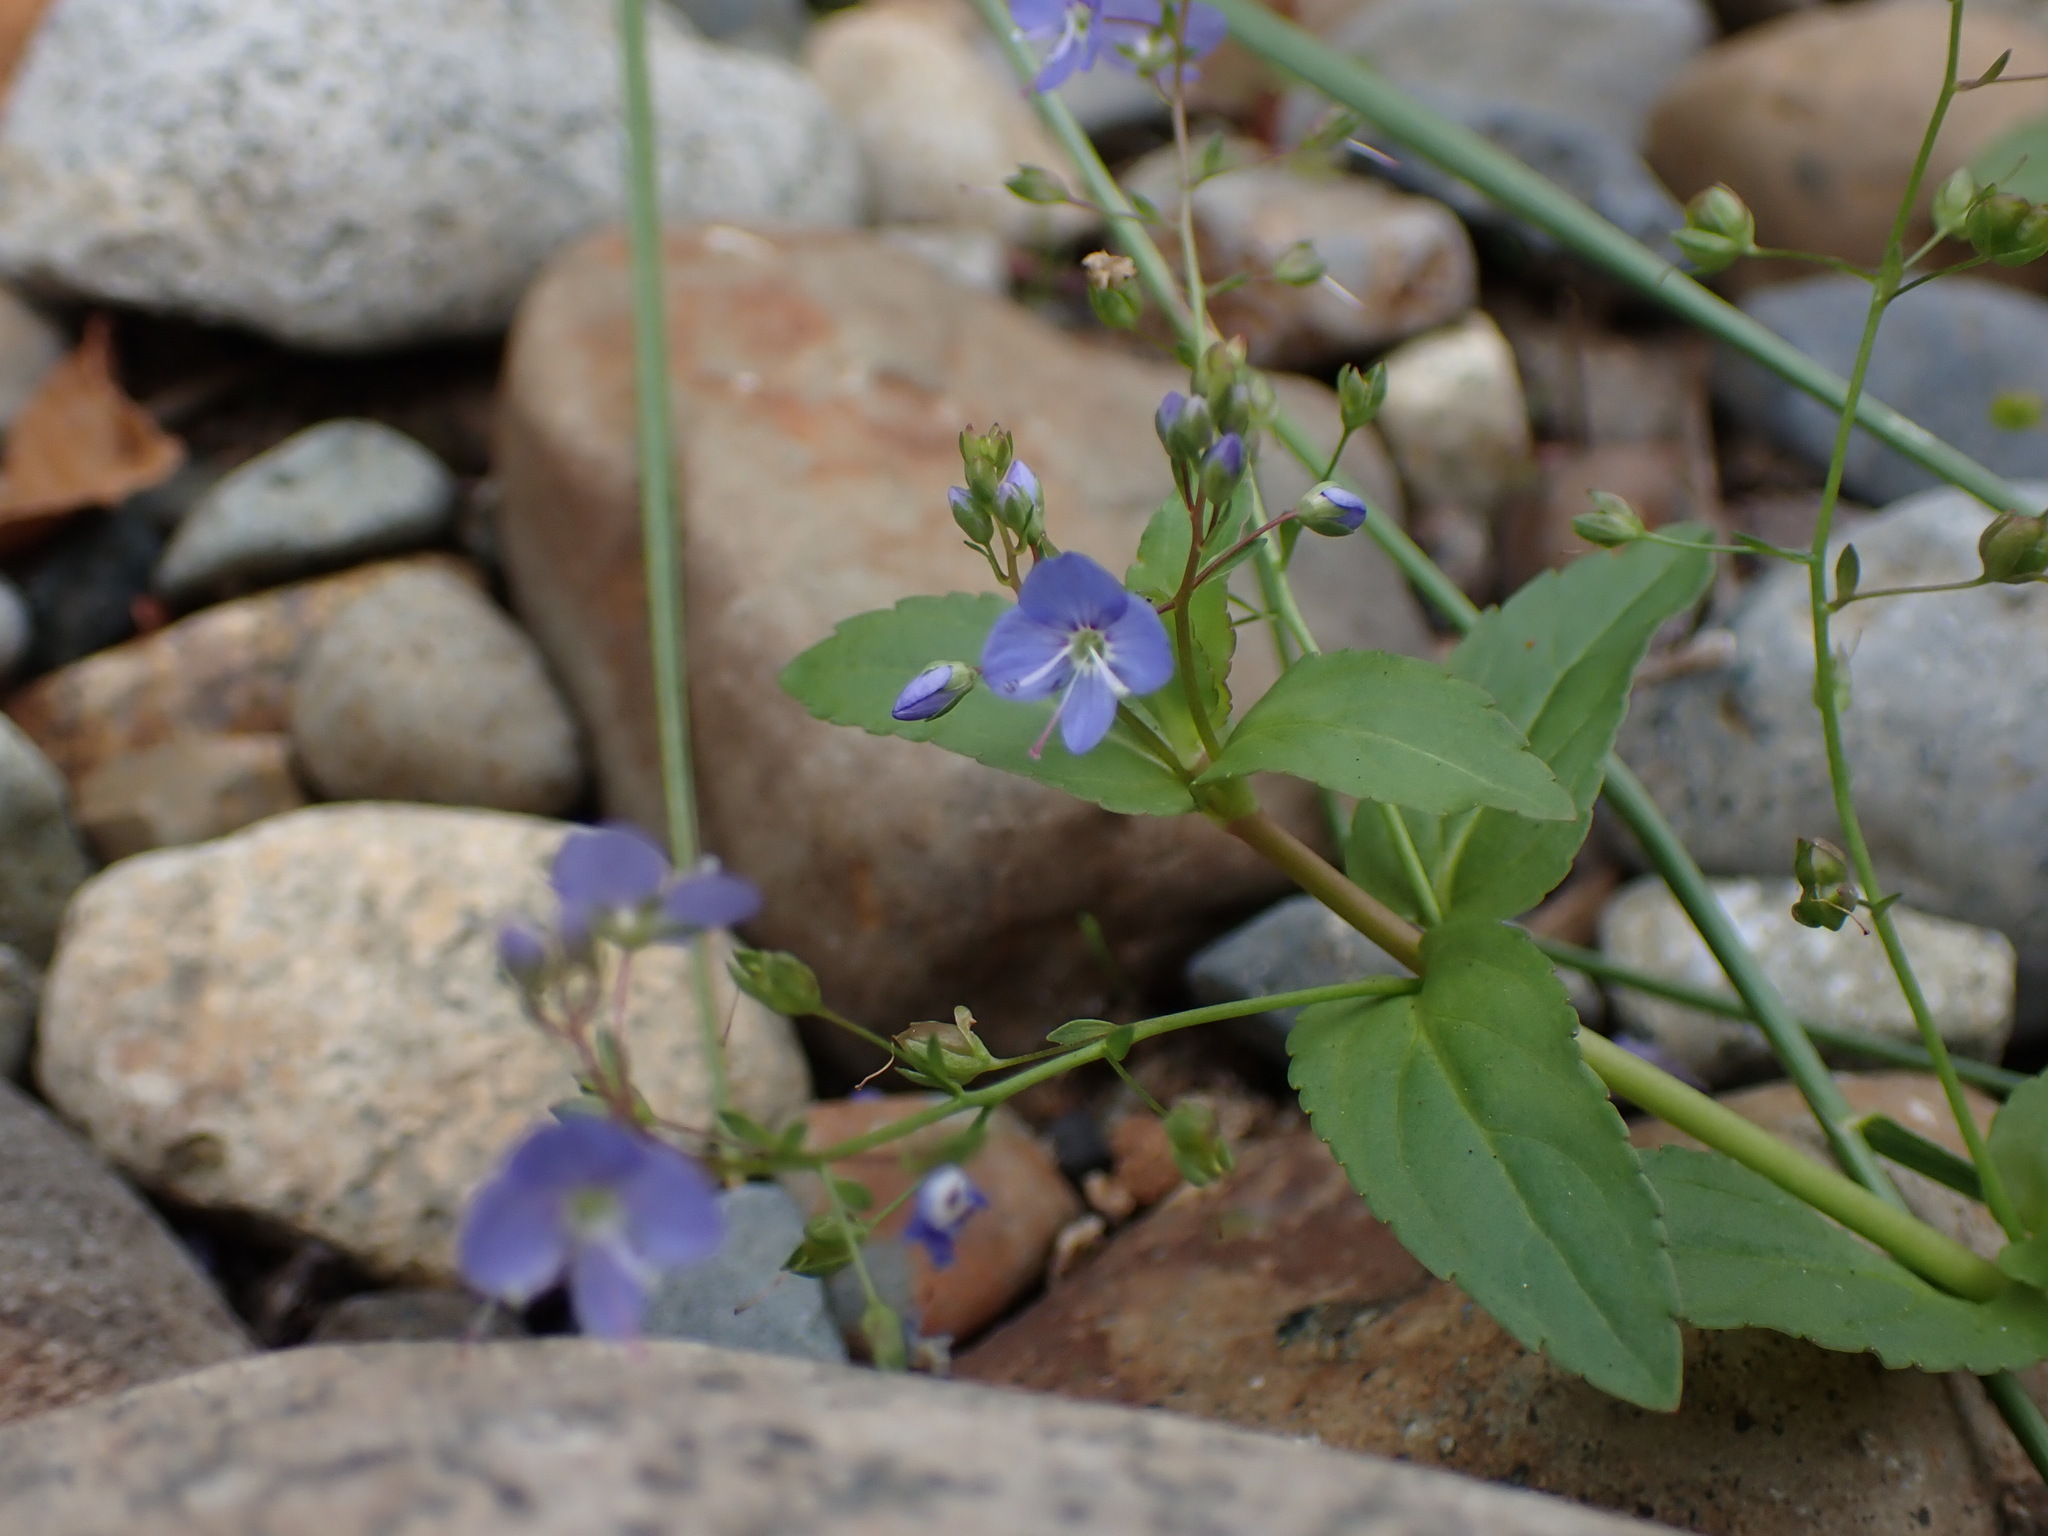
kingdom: Plantae
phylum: Tracheophyta
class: Magnoliopsida
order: Lamiales
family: Plantaginaceae
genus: Veronica
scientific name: Veronica americana
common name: American brooklime
